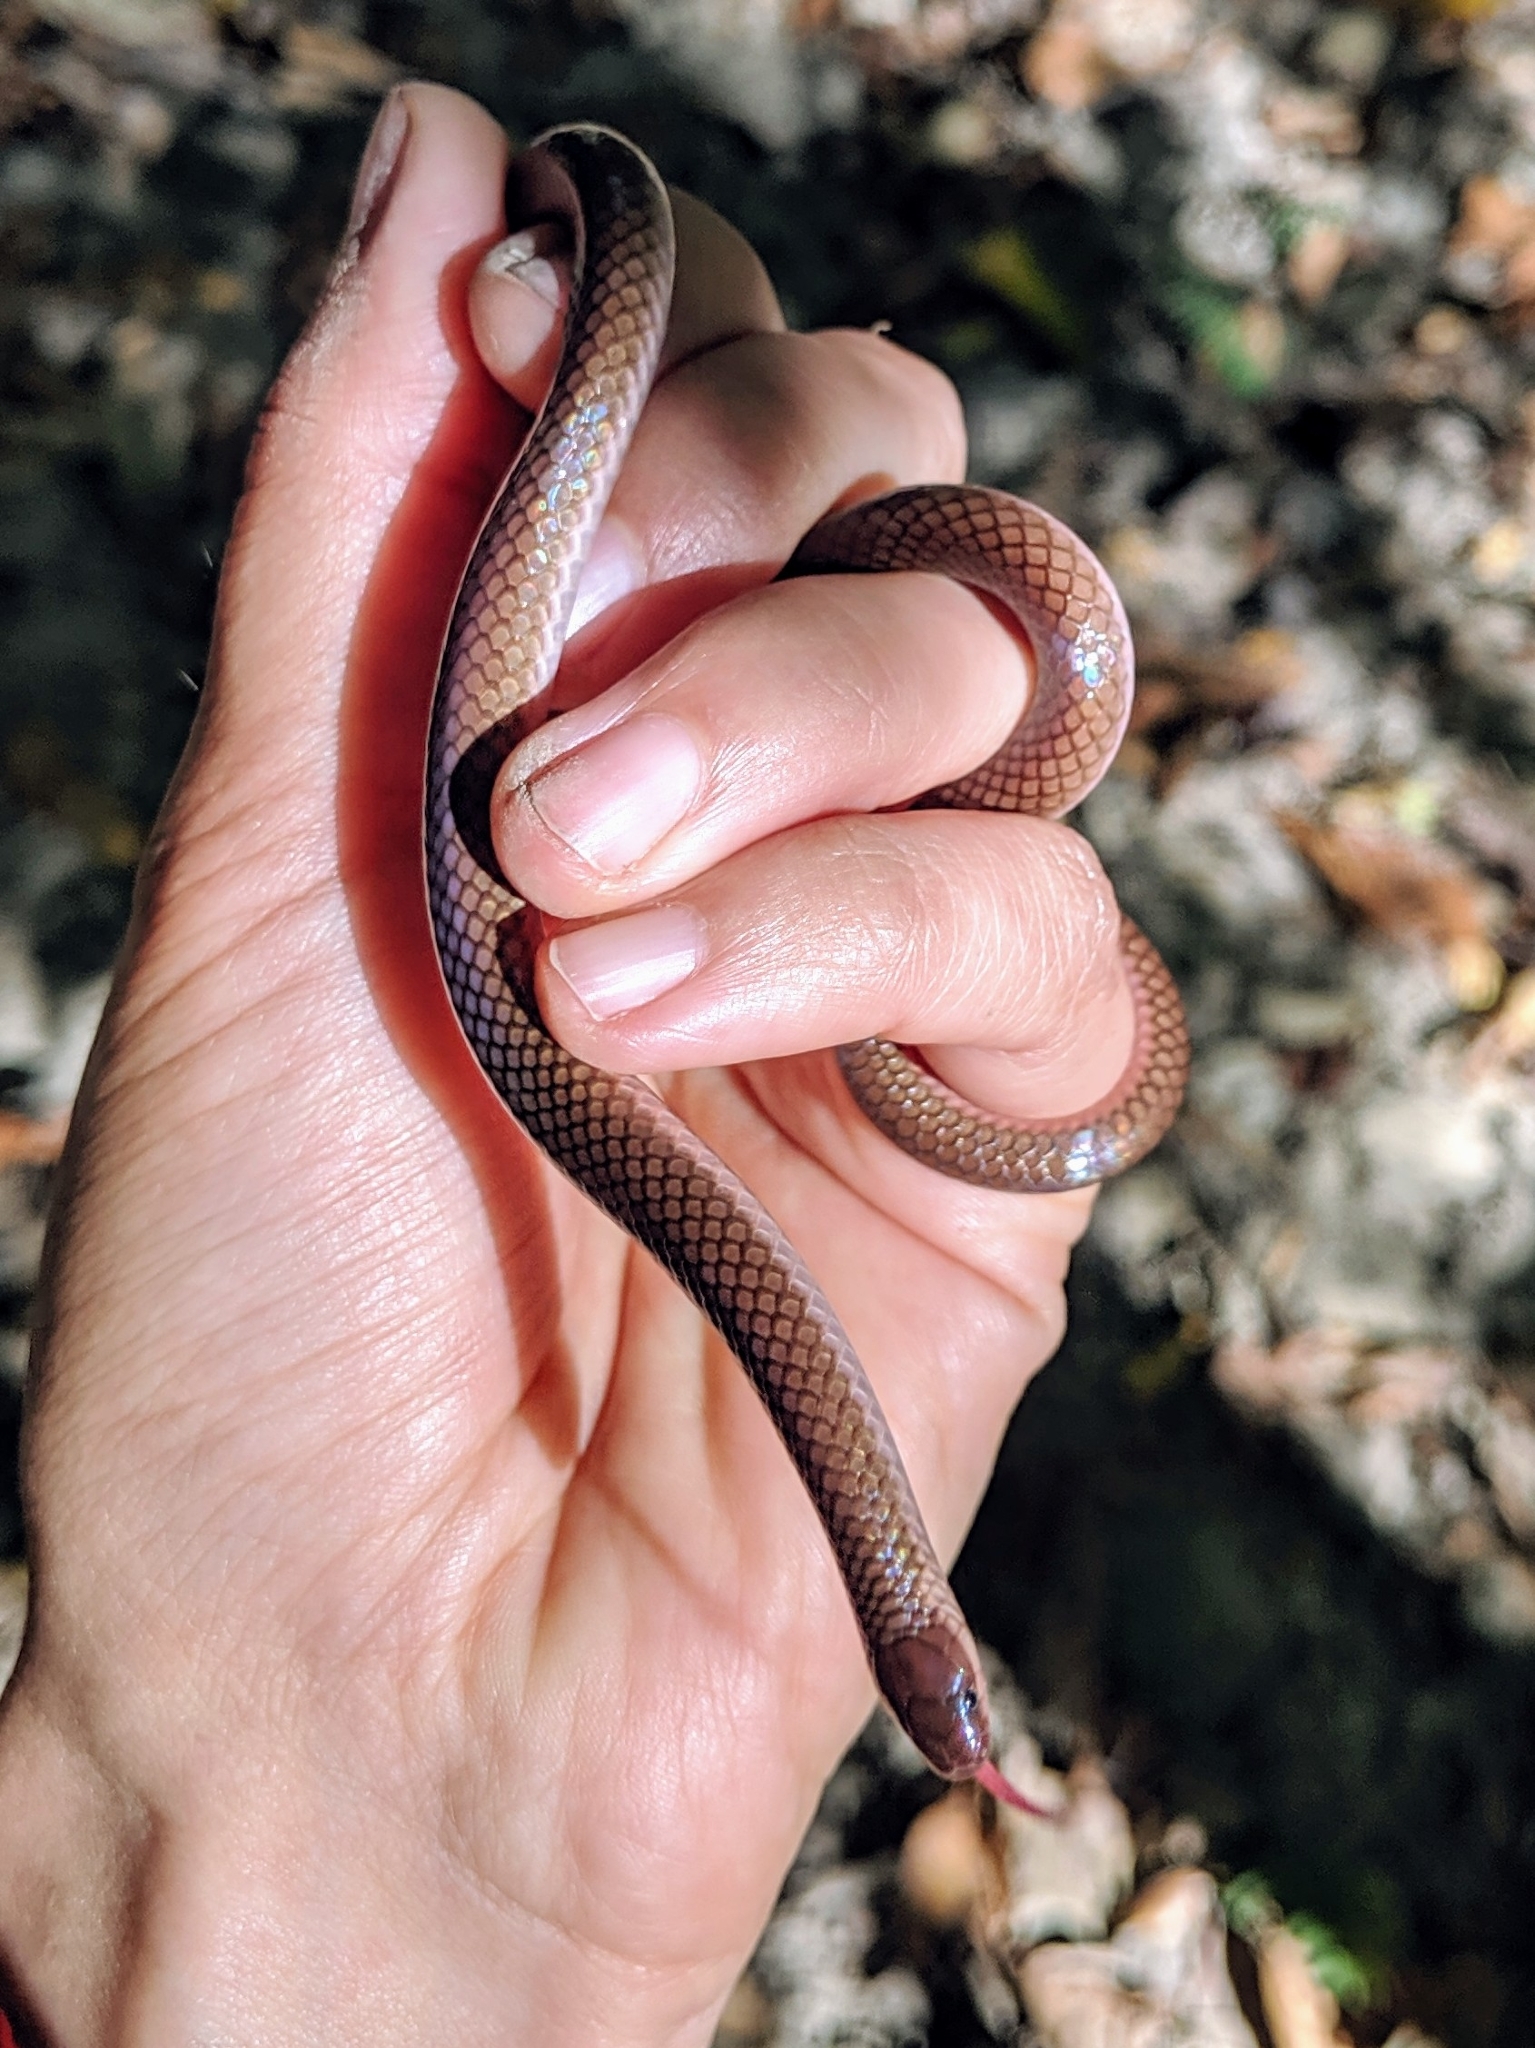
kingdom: Animalia
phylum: Chordata
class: Squamata
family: Colubridae
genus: Carphophis
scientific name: Carphophis amoenus
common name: Eastern worm snake
